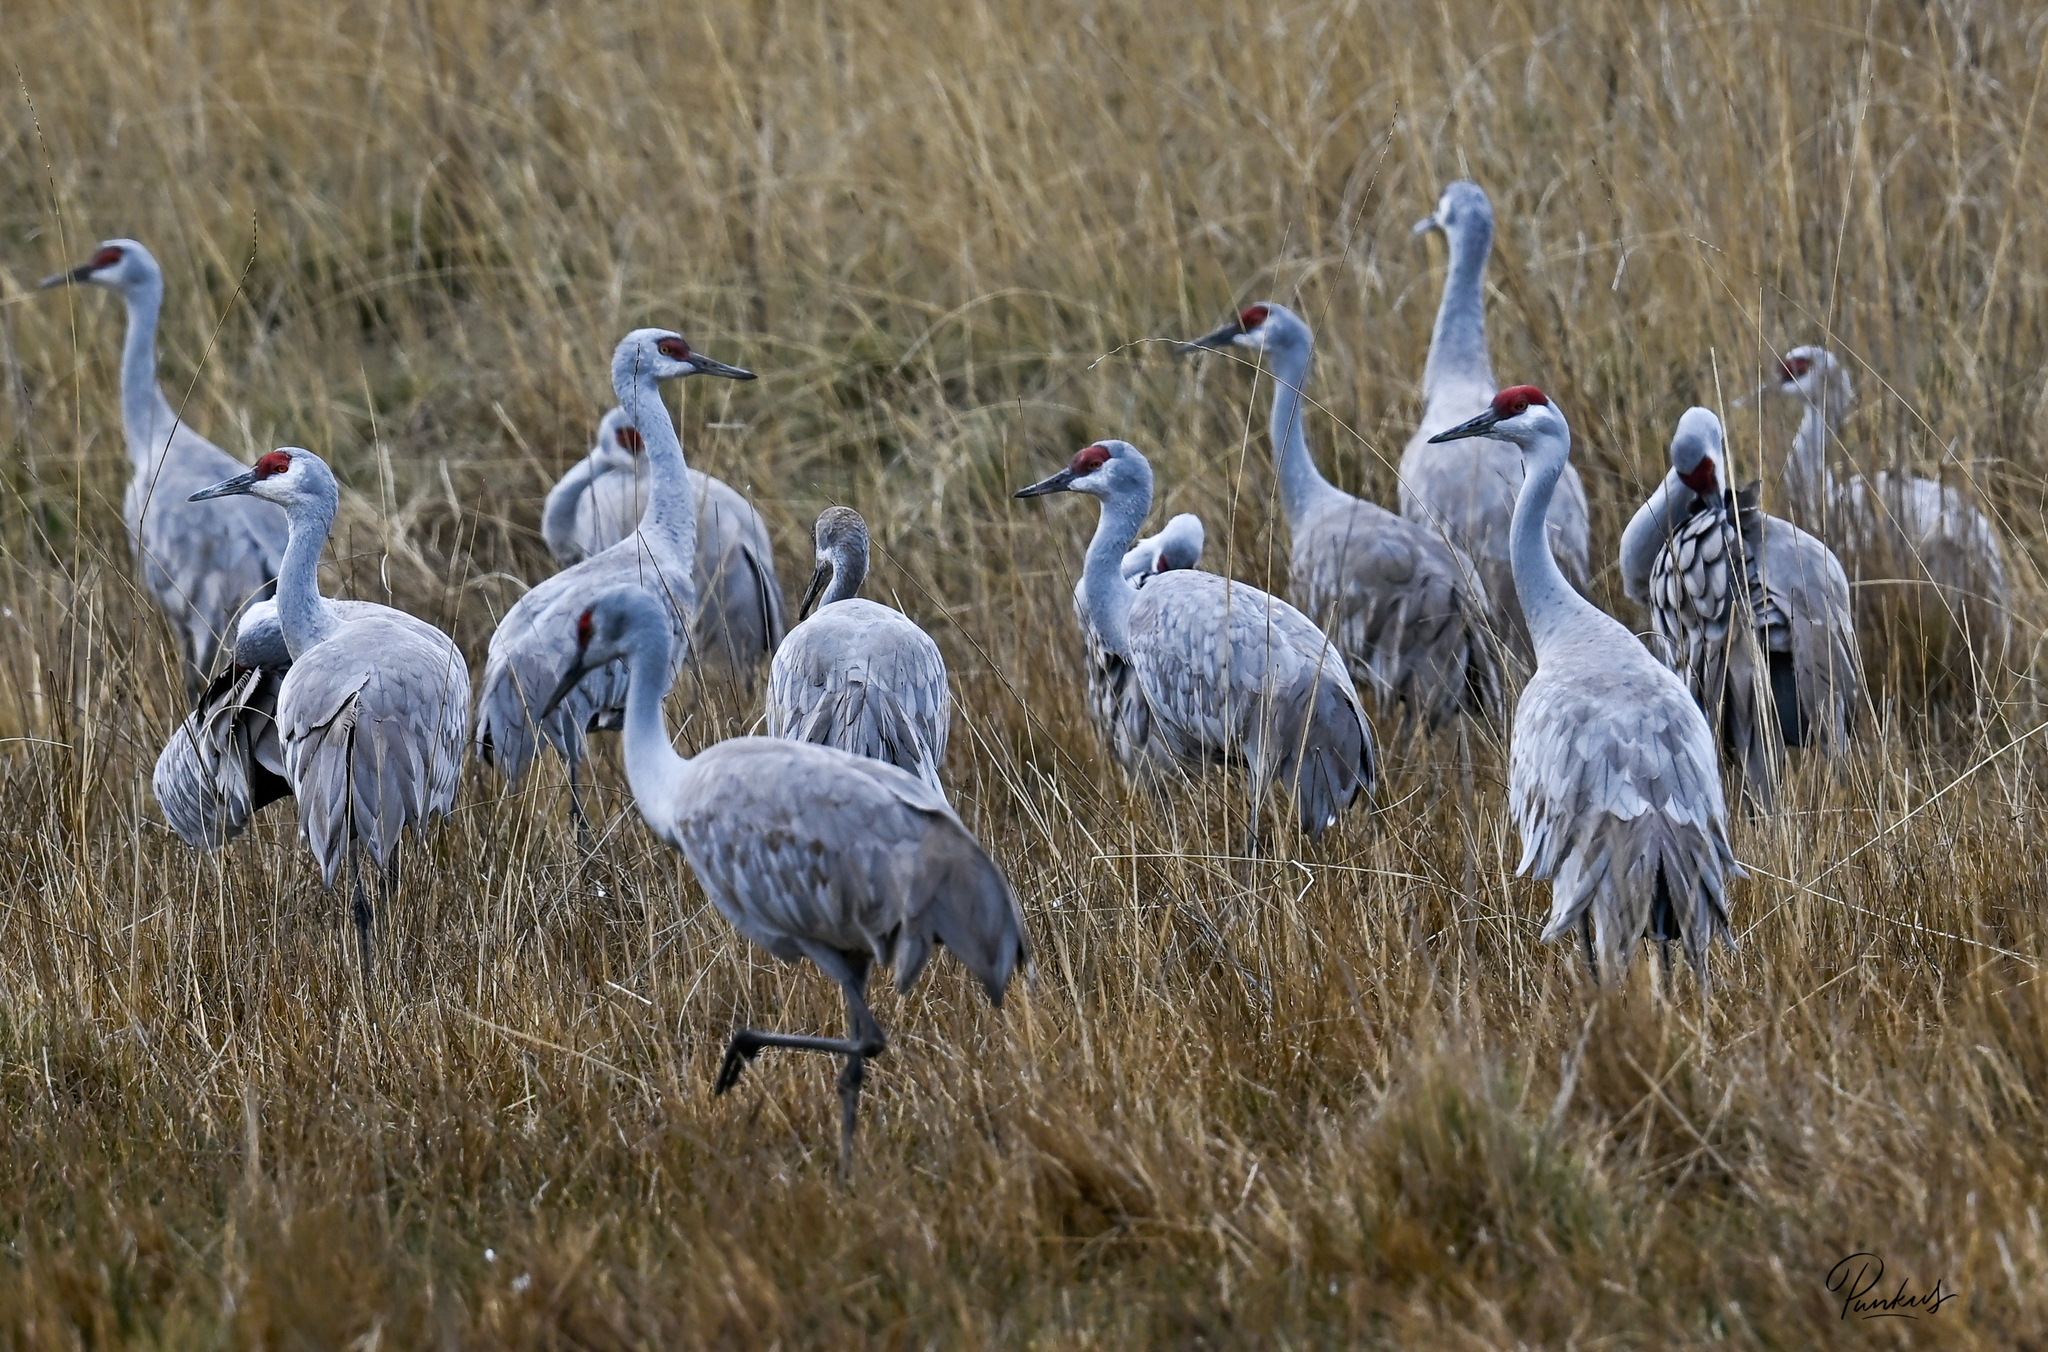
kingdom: Animalia
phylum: Chordata
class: Aves
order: Gruiformes
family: Gruidae
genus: Grus
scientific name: Grus canadensis
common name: Sandhill crane
